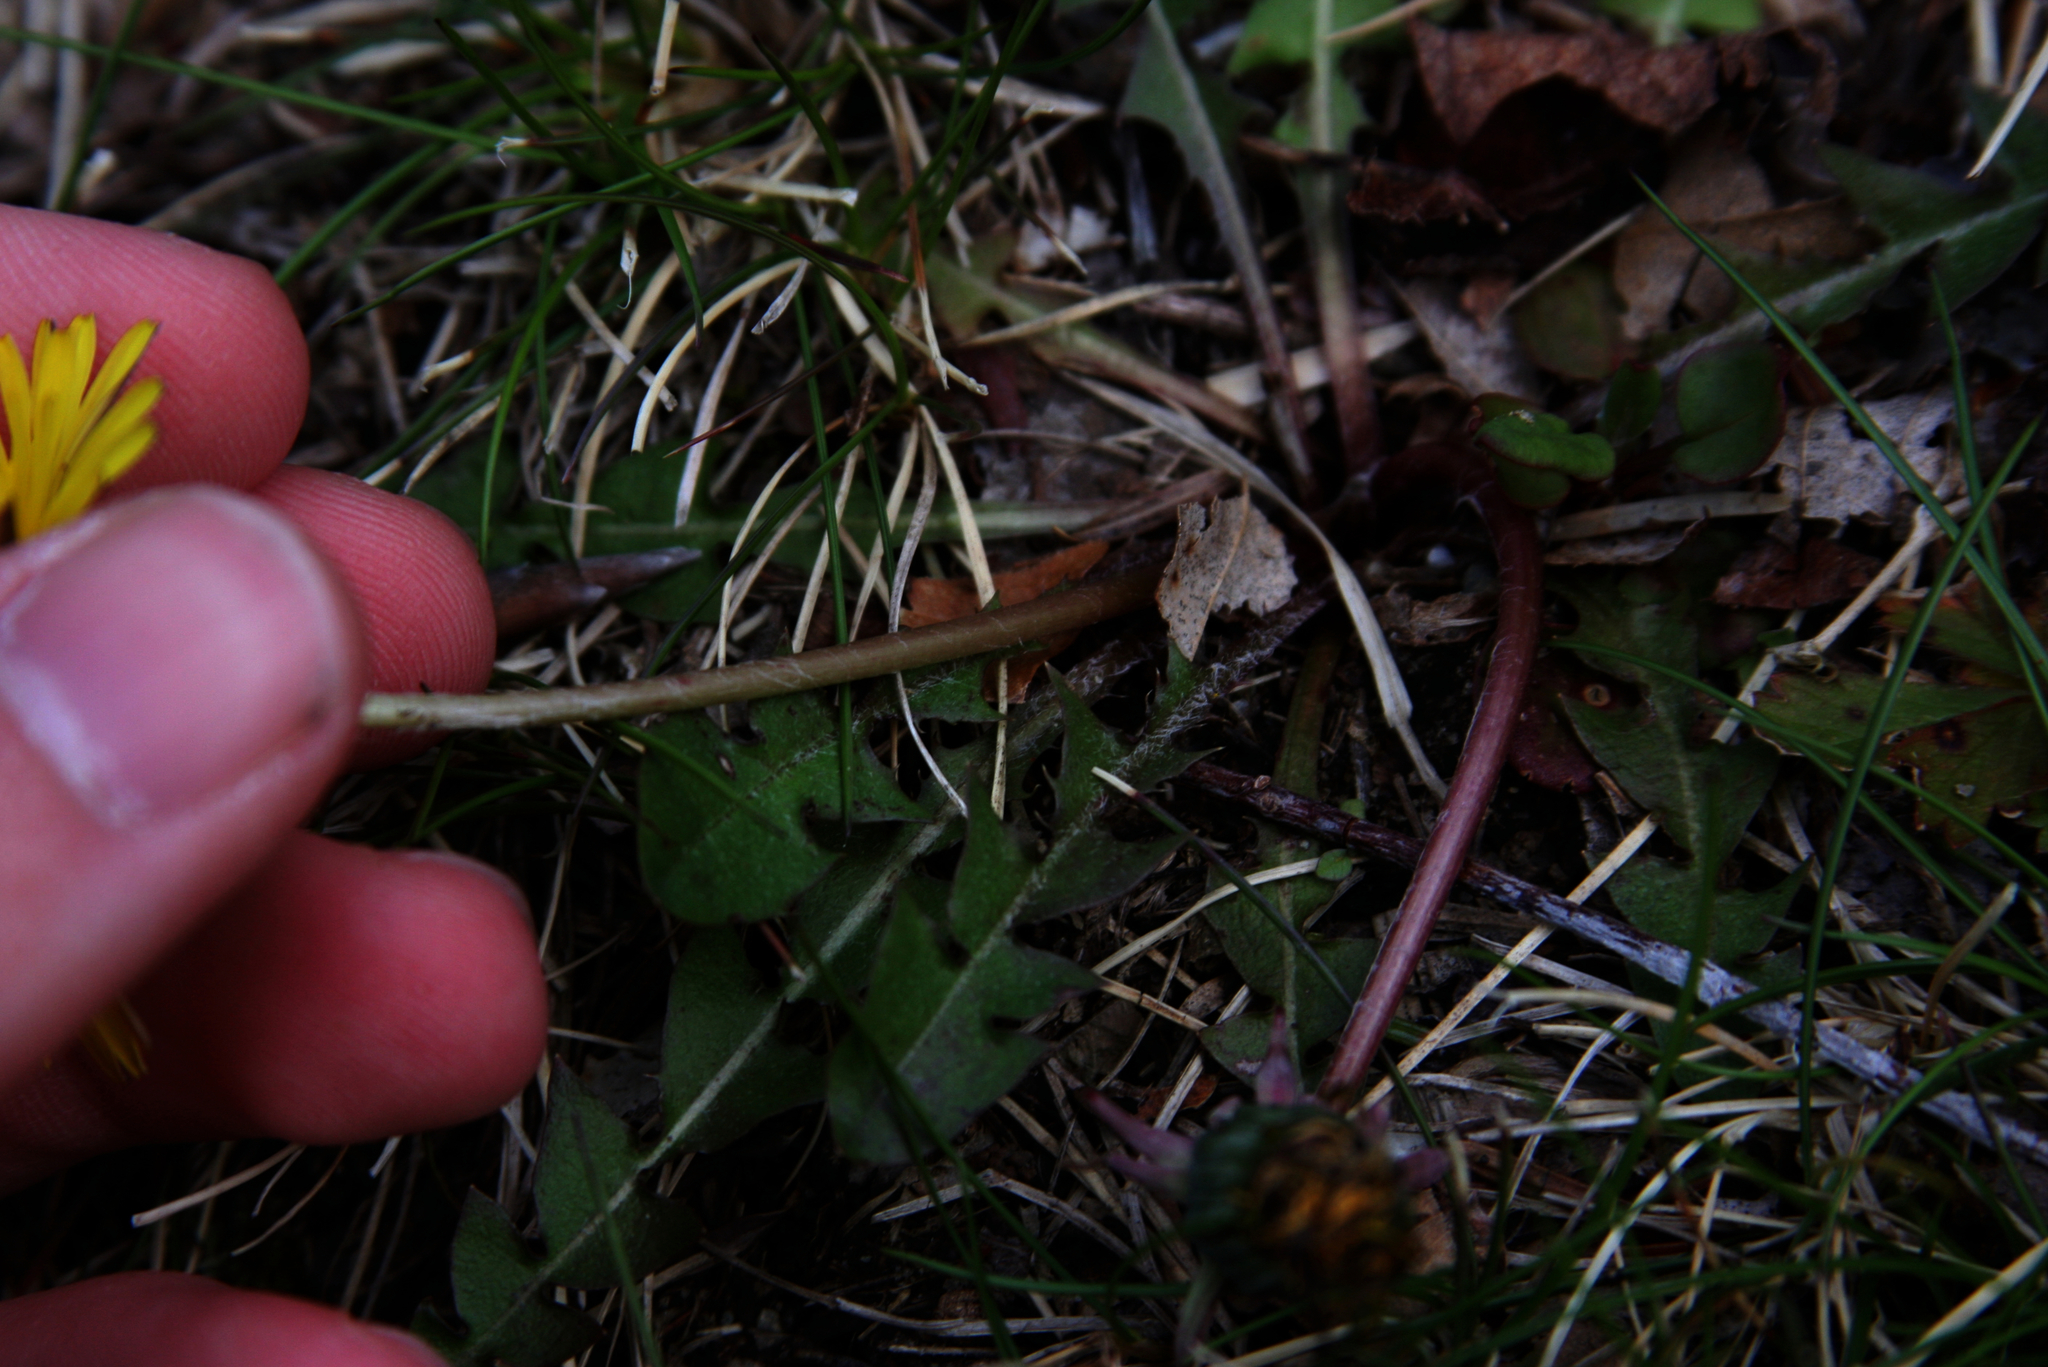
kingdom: Plantae
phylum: Tracheophyta
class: Magnoliopsida
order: Asterales
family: Asteraceae
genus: Taraxacum
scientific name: Taraxacum officinale
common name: Common dandelion
